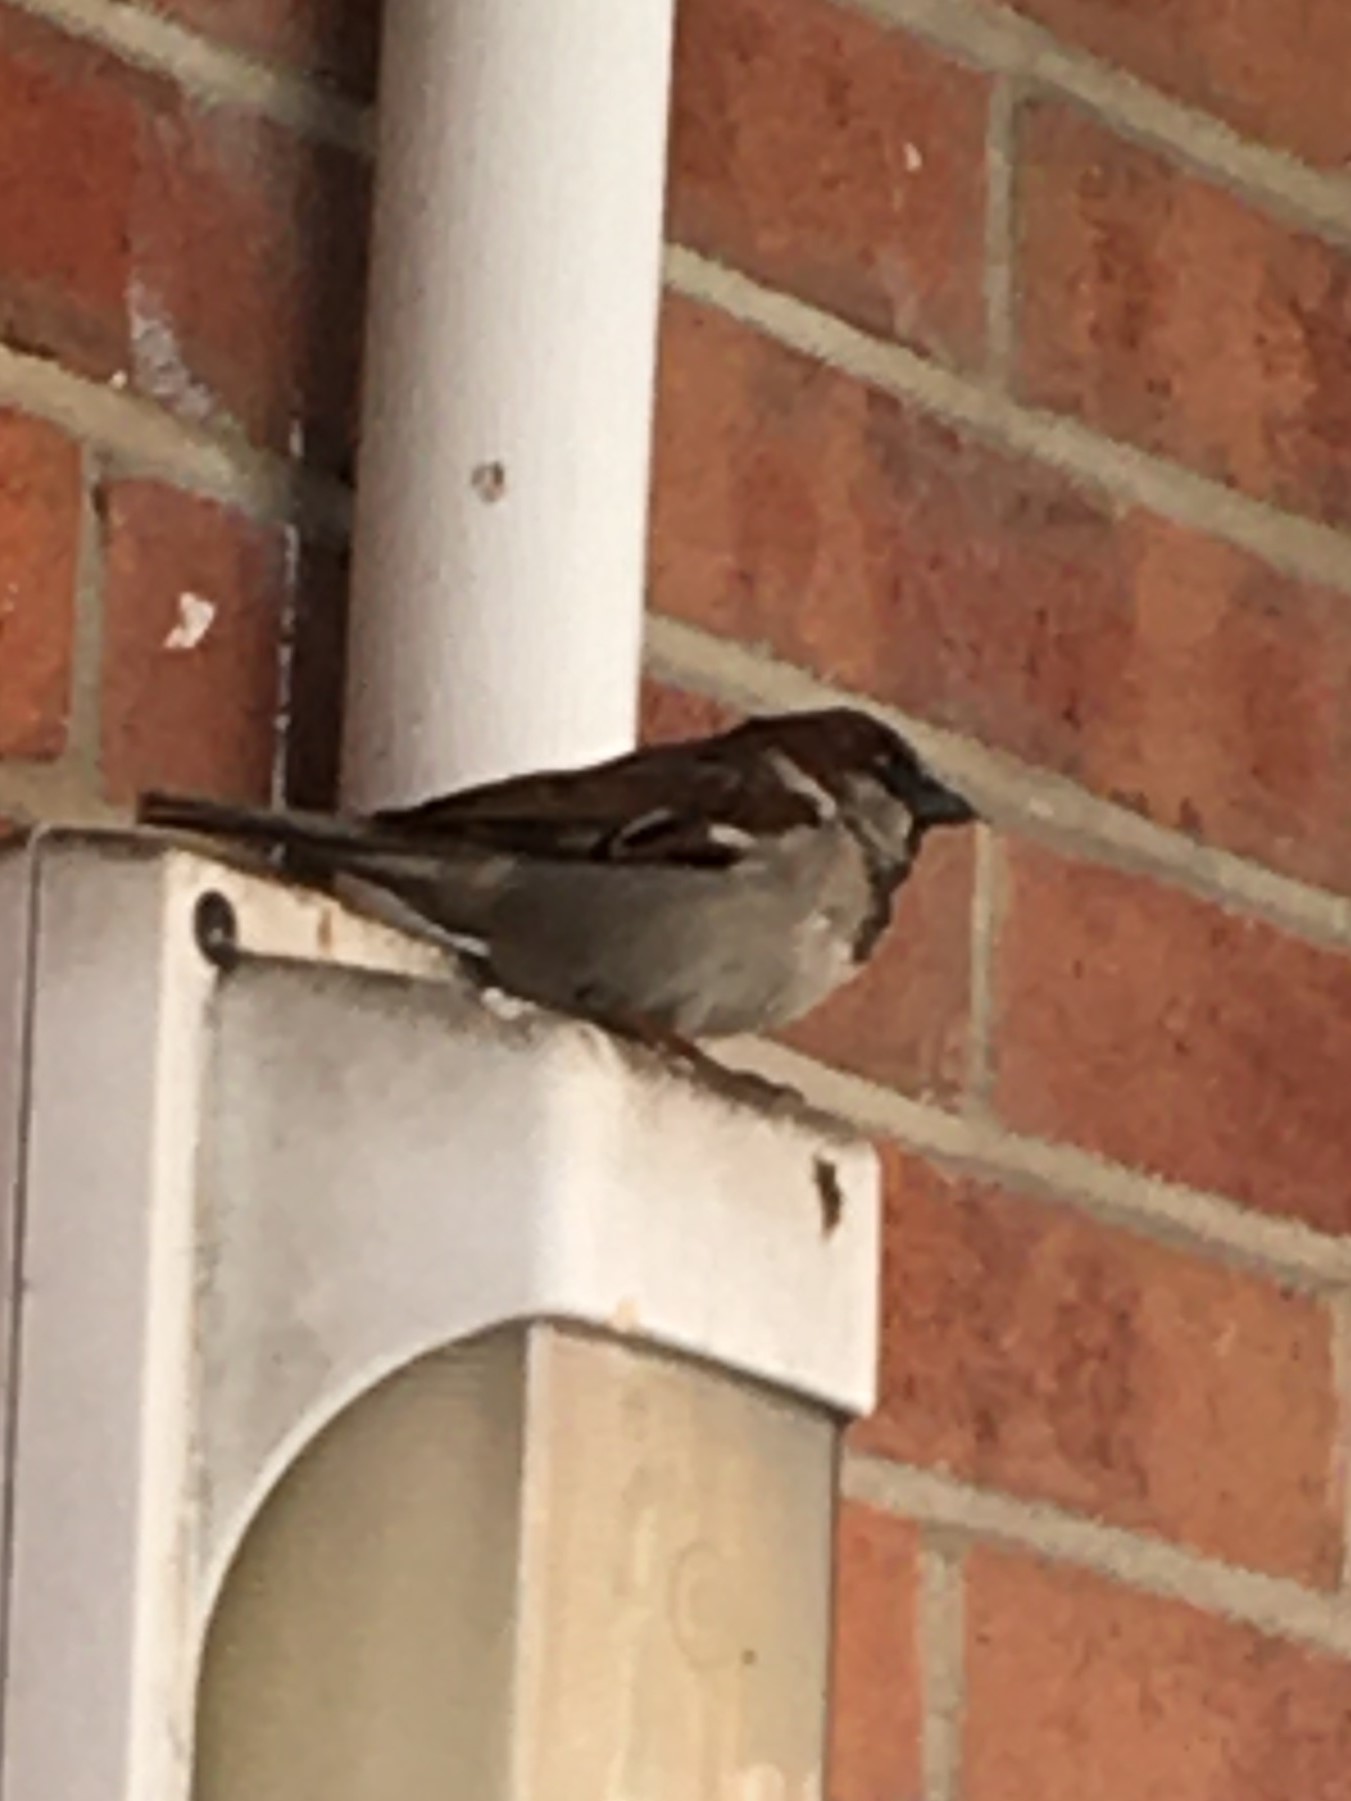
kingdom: Animalia
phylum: Chordata
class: Aves
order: Passeriformes
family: Passeridae
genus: Passer
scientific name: Passer domesticus
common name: House sparrow
